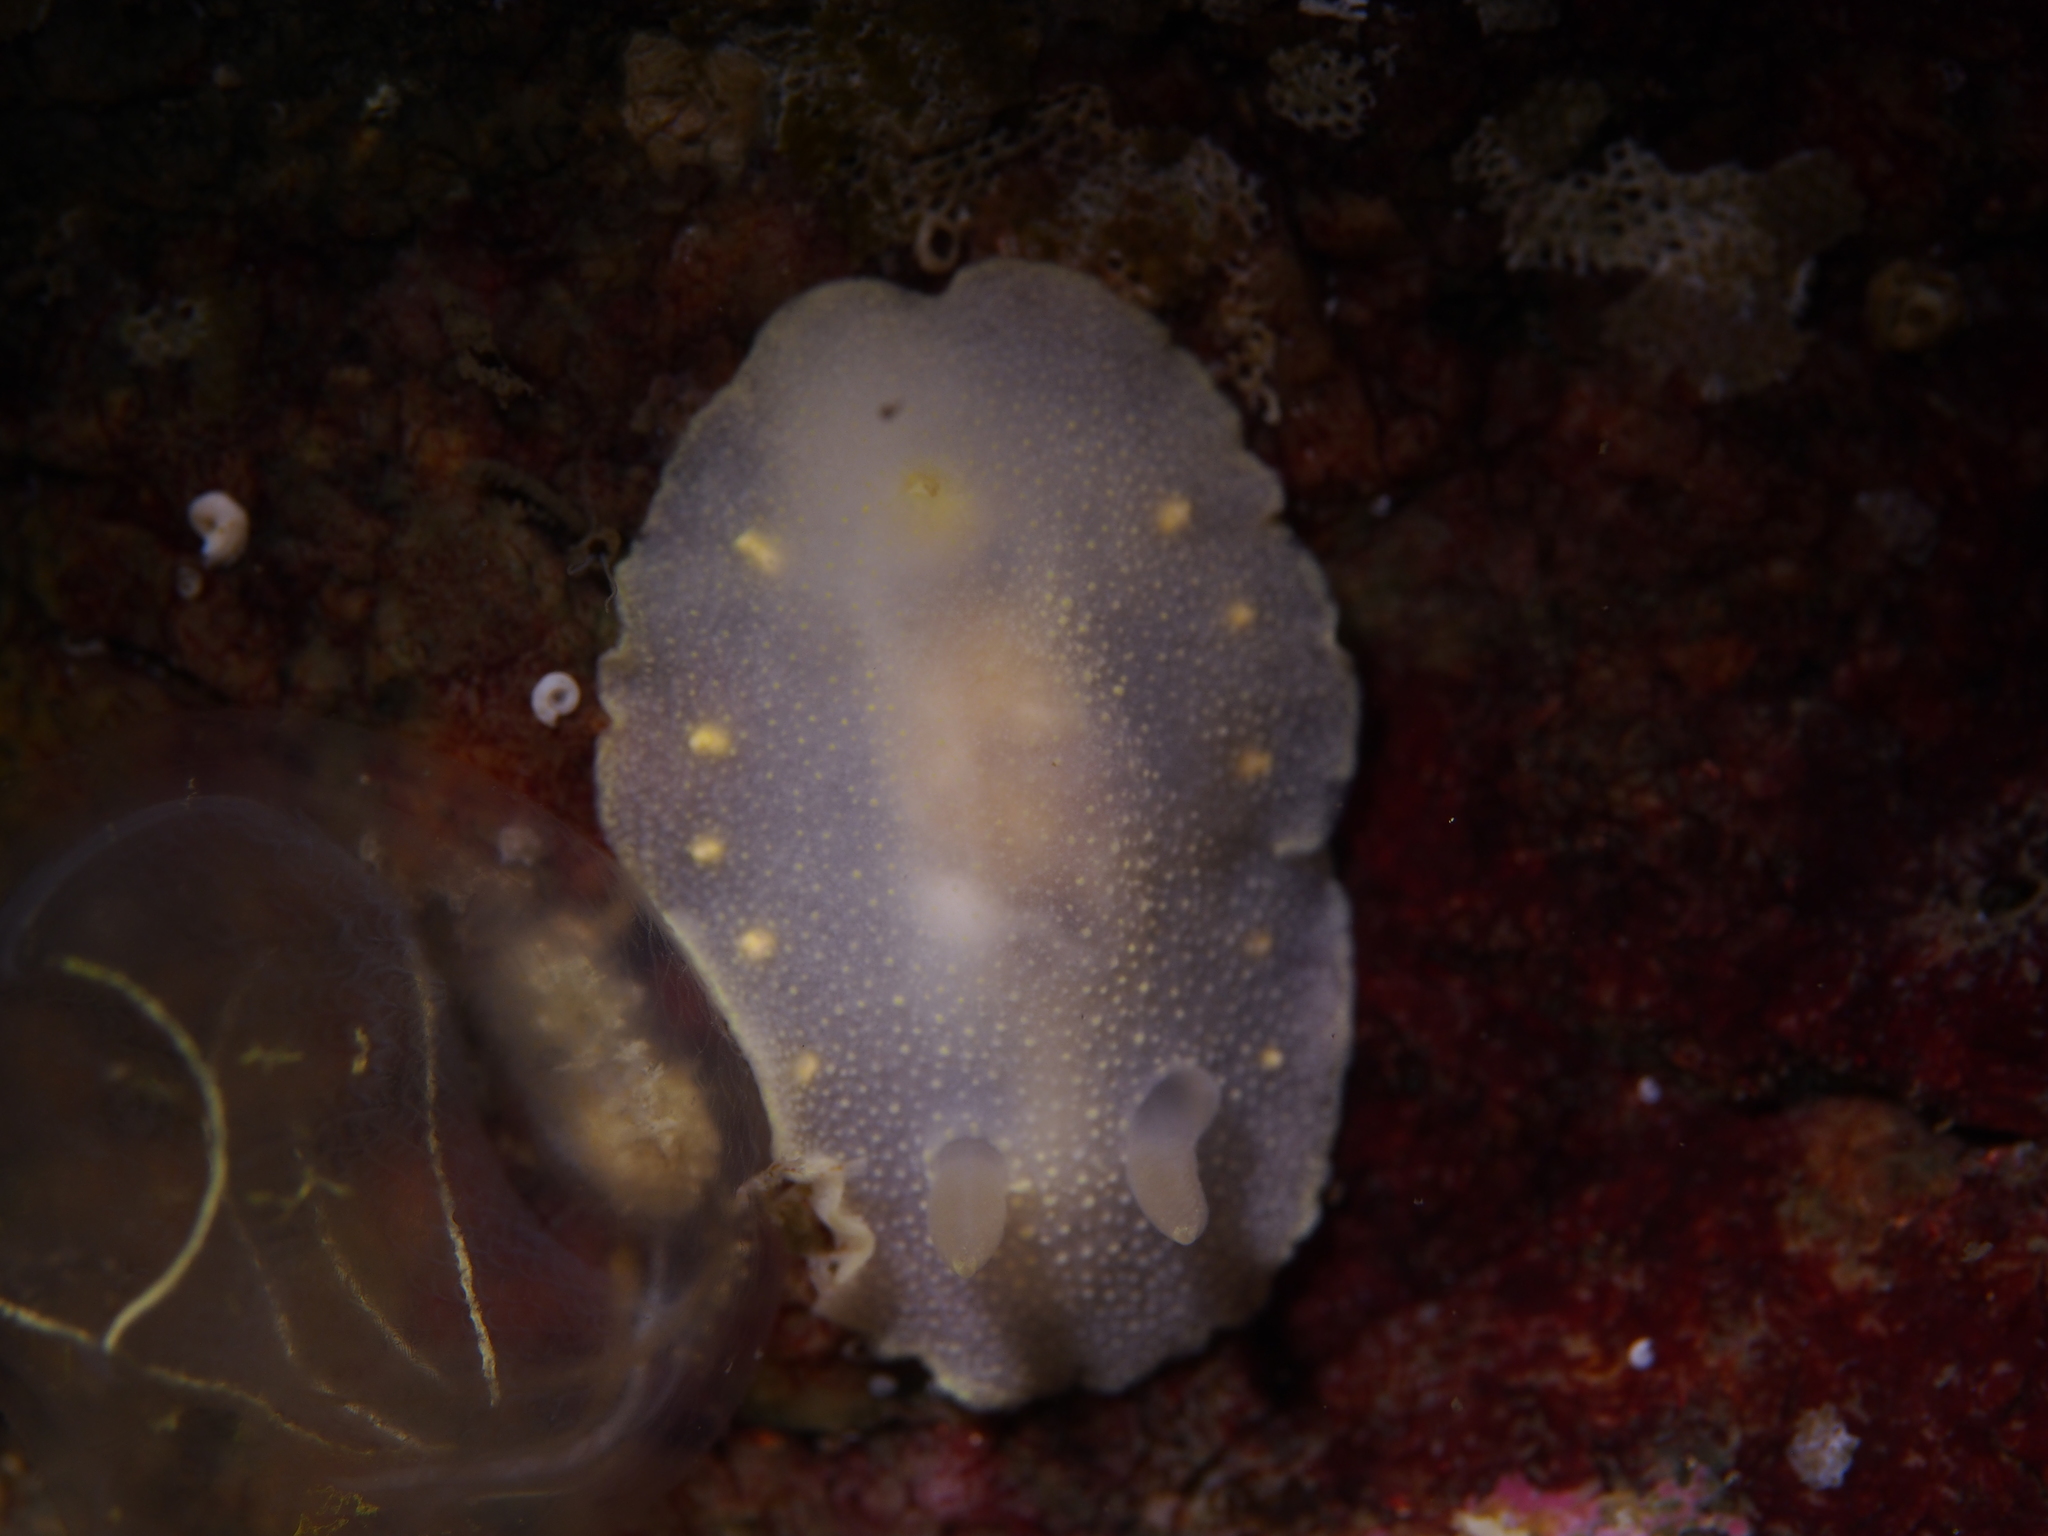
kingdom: Animalia
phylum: Mollusca
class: Gastropoda
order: Nudibranchia
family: Cadlinidae
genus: Cadlina
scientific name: Cadlina laevis
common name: White atlantic cadlina
